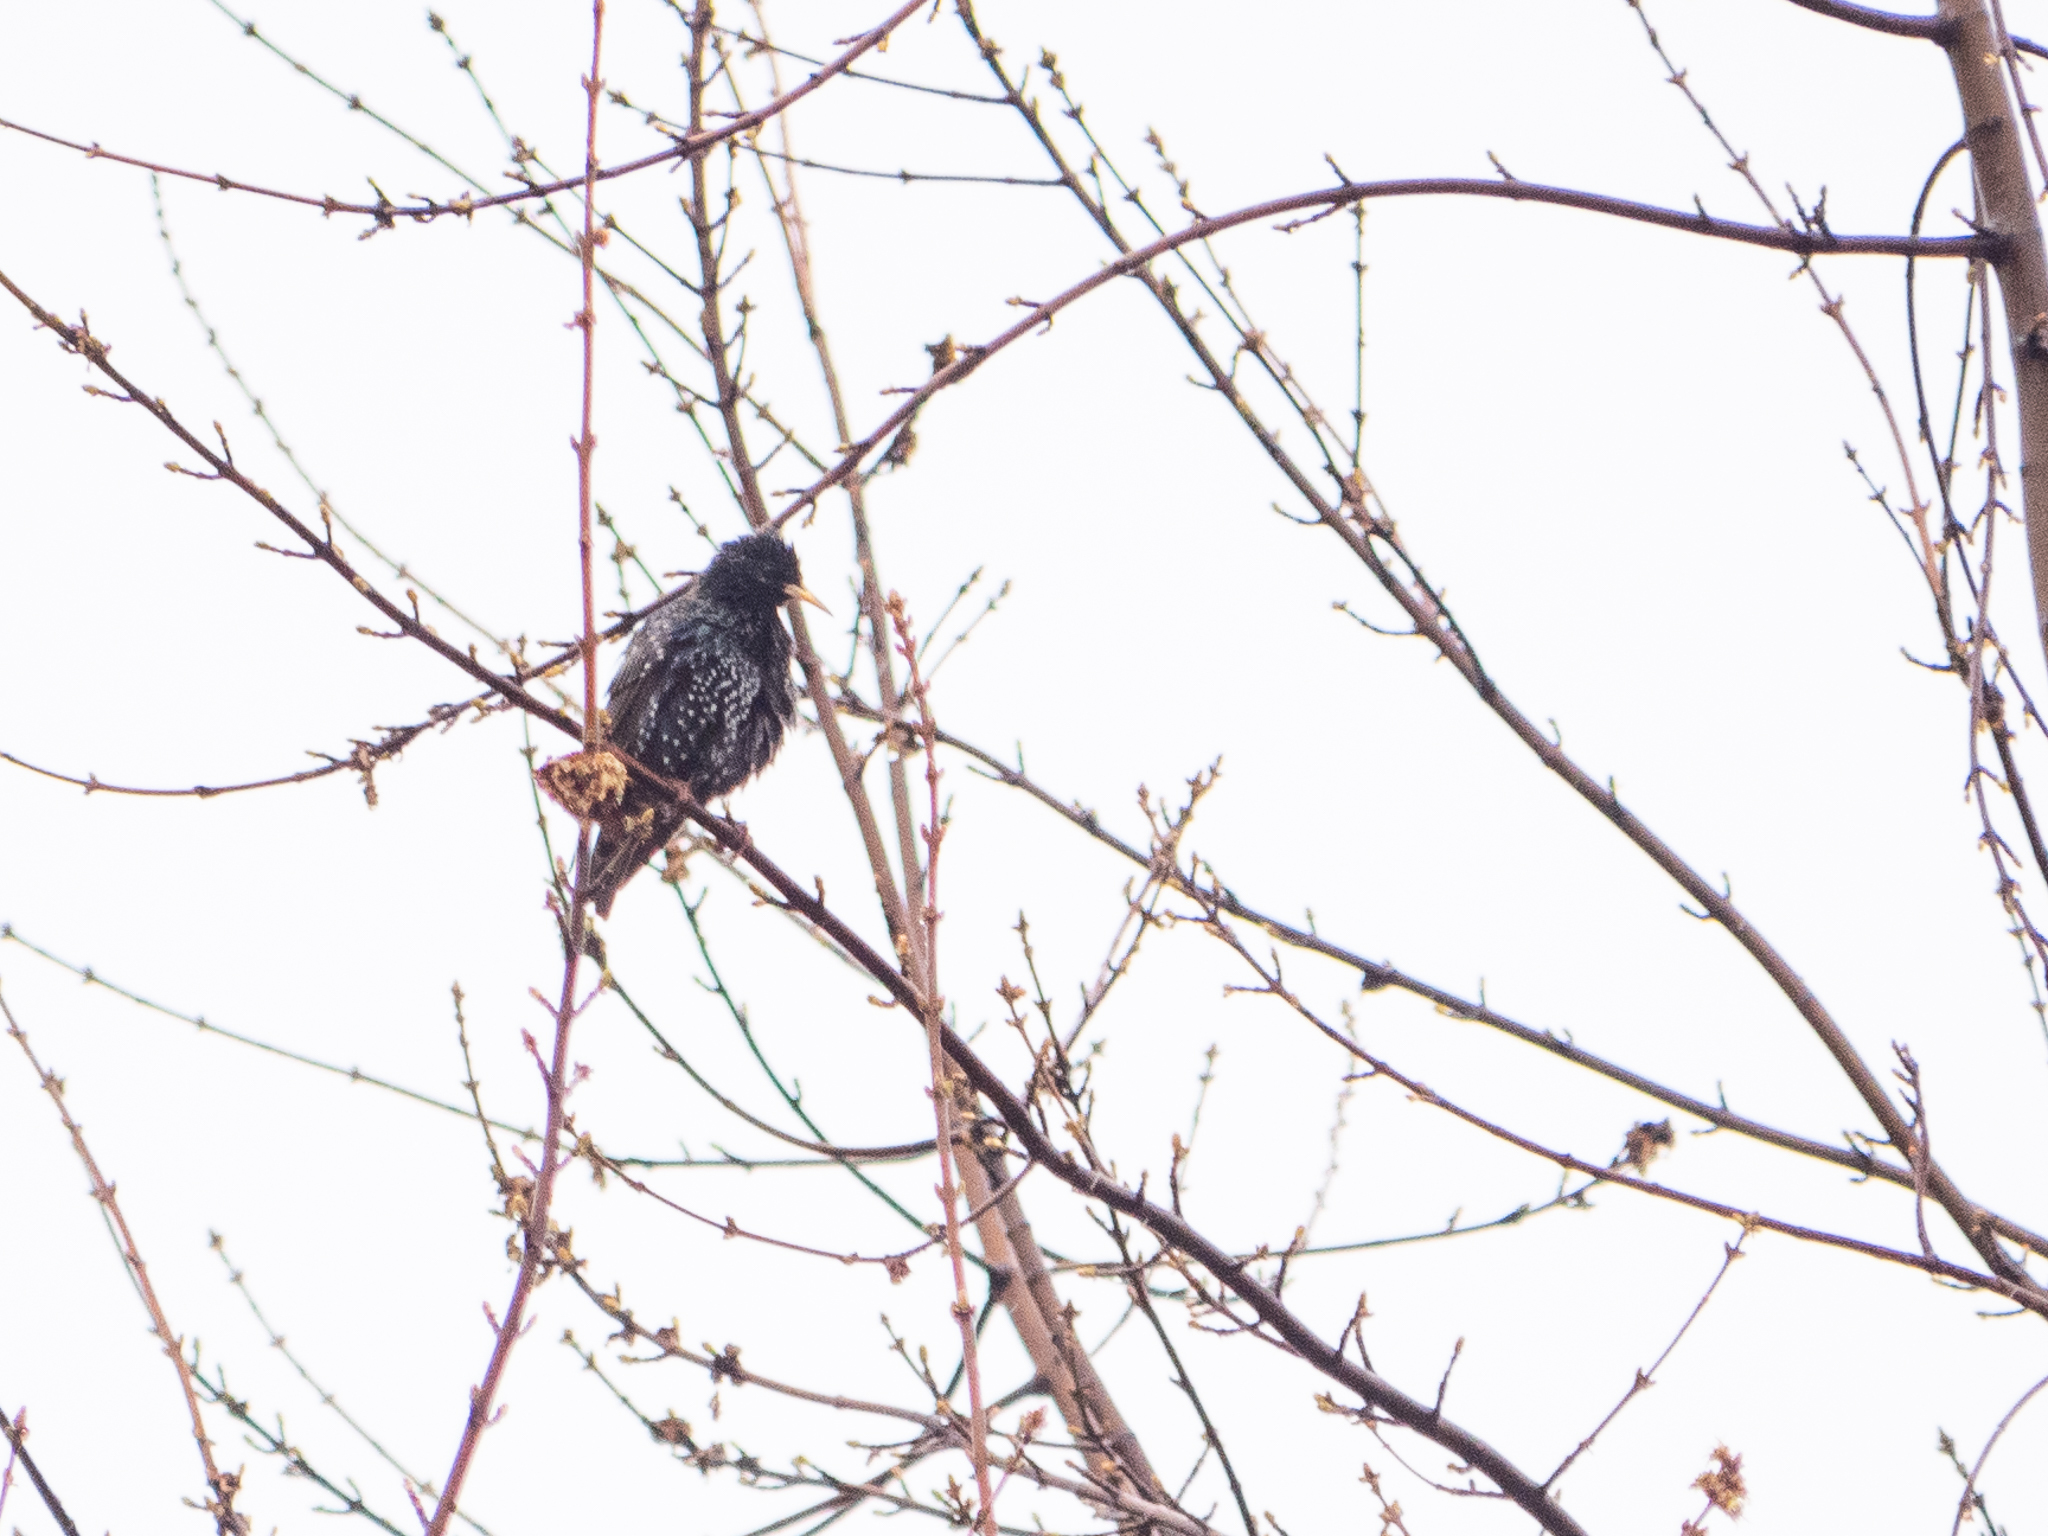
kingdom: Animalia
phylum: Chordata
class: Aves
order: Passeriformes
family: Sturnidae
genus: Sturnus
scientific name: Sturnus vulgaris
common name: Common starling
